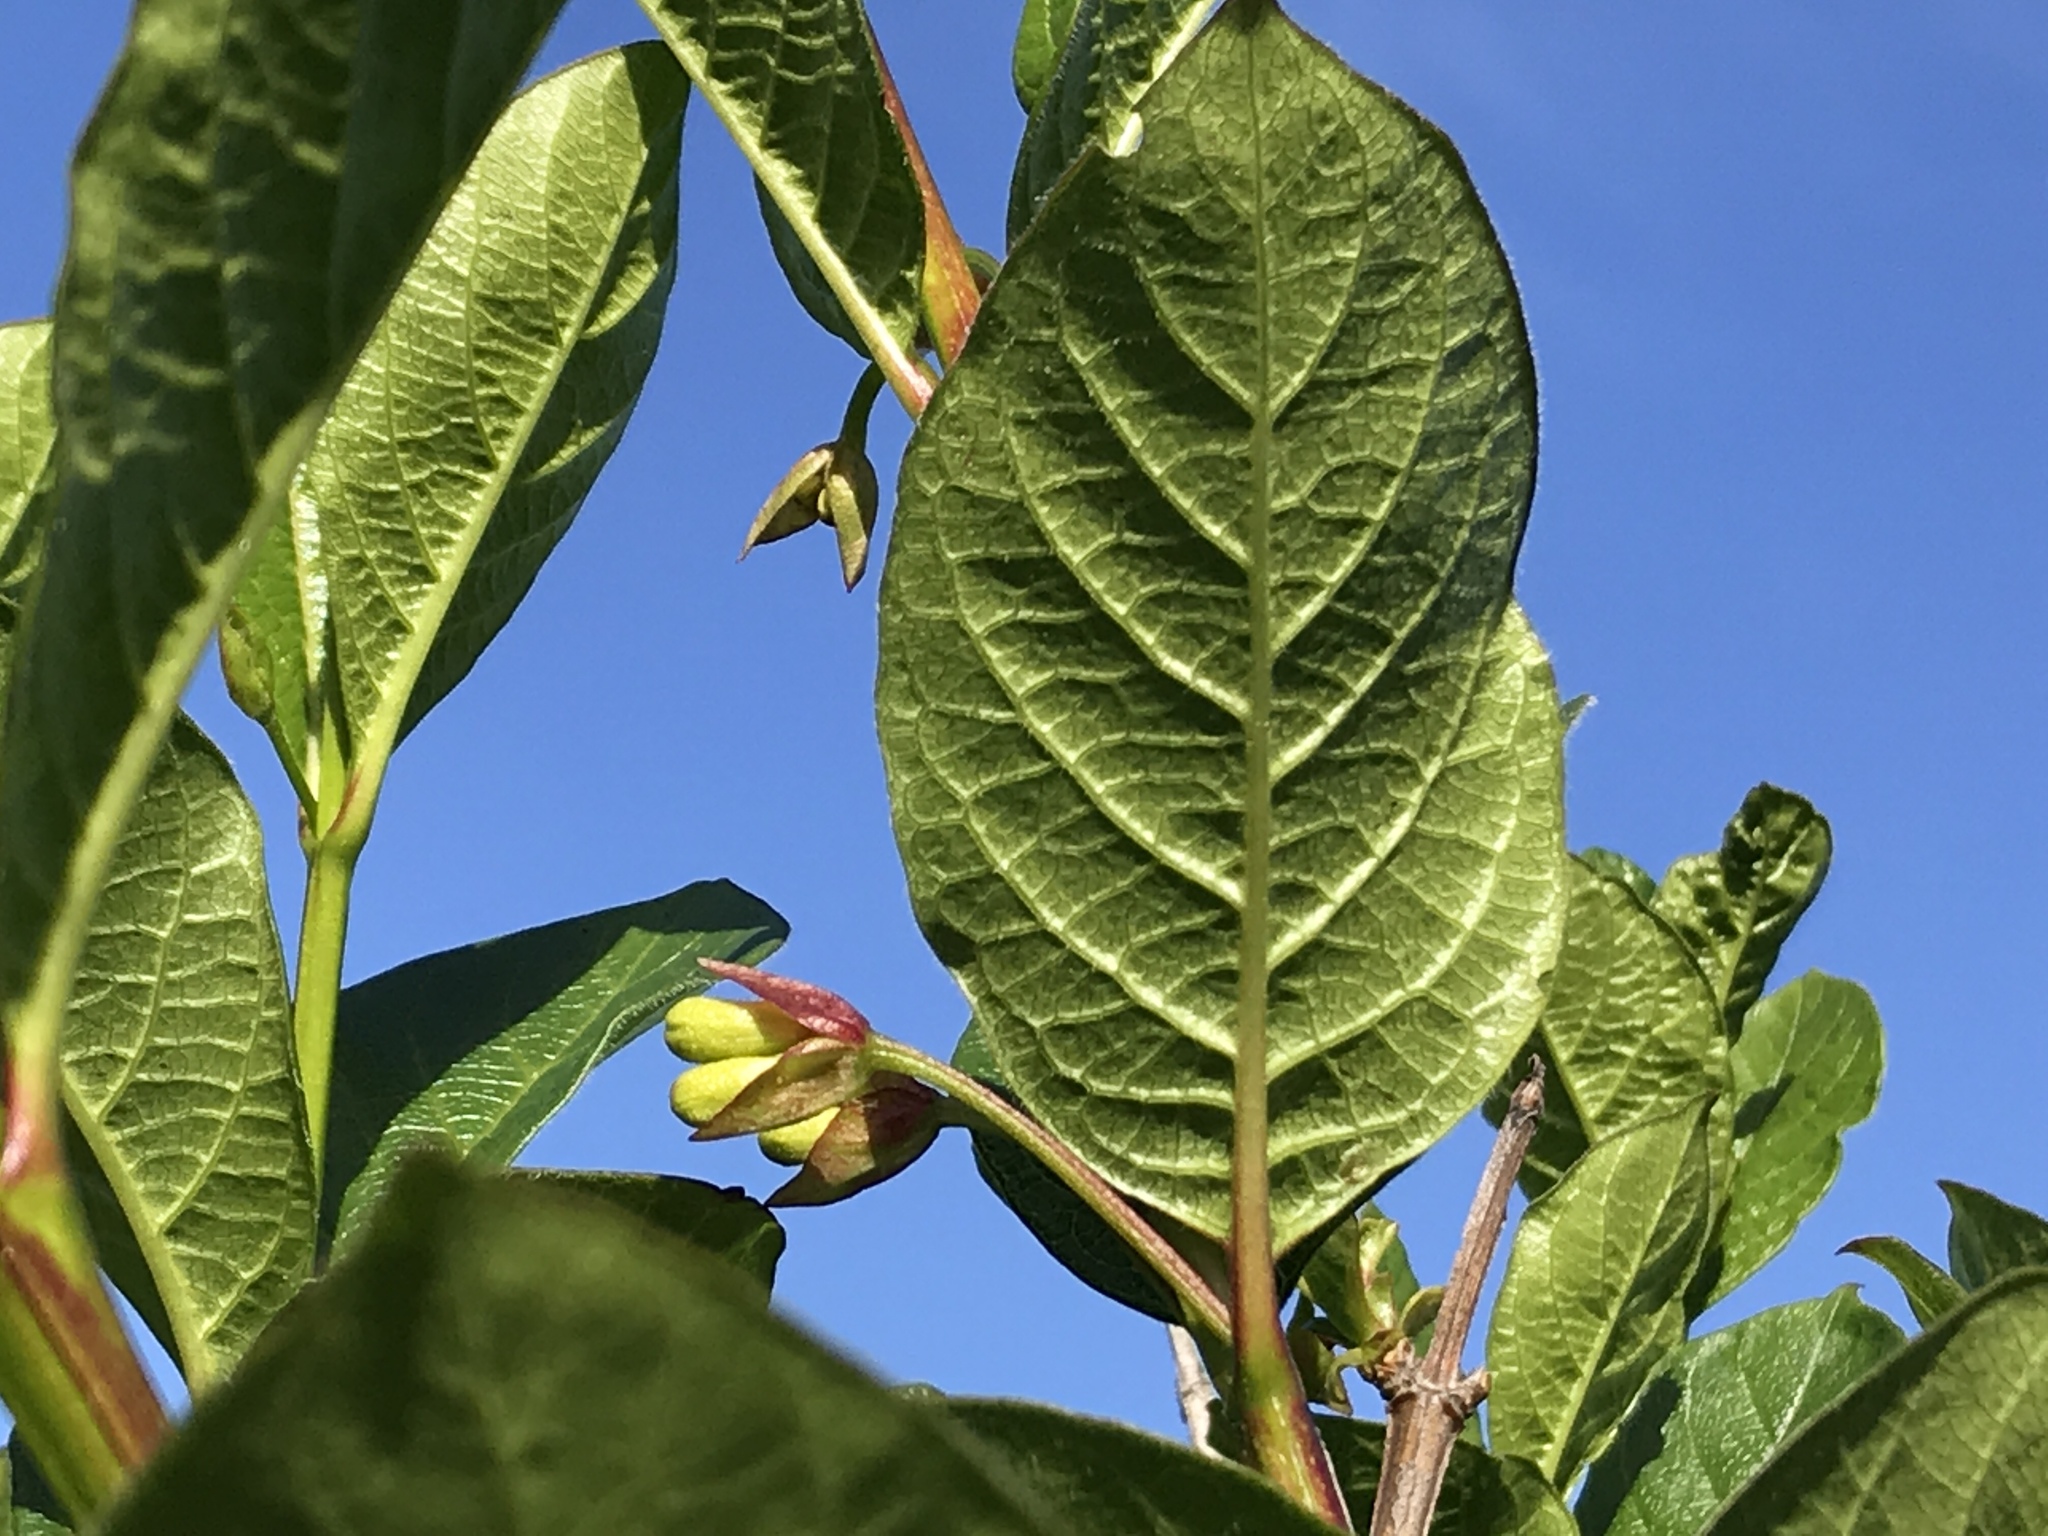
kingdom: Plantae
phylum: Tracheophyta
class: Magnoliopsida
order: Dipsacales
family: Caprifoliaceae
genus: Lonicera
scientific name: Lonicera involucrata
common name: Californian honeysuckle
